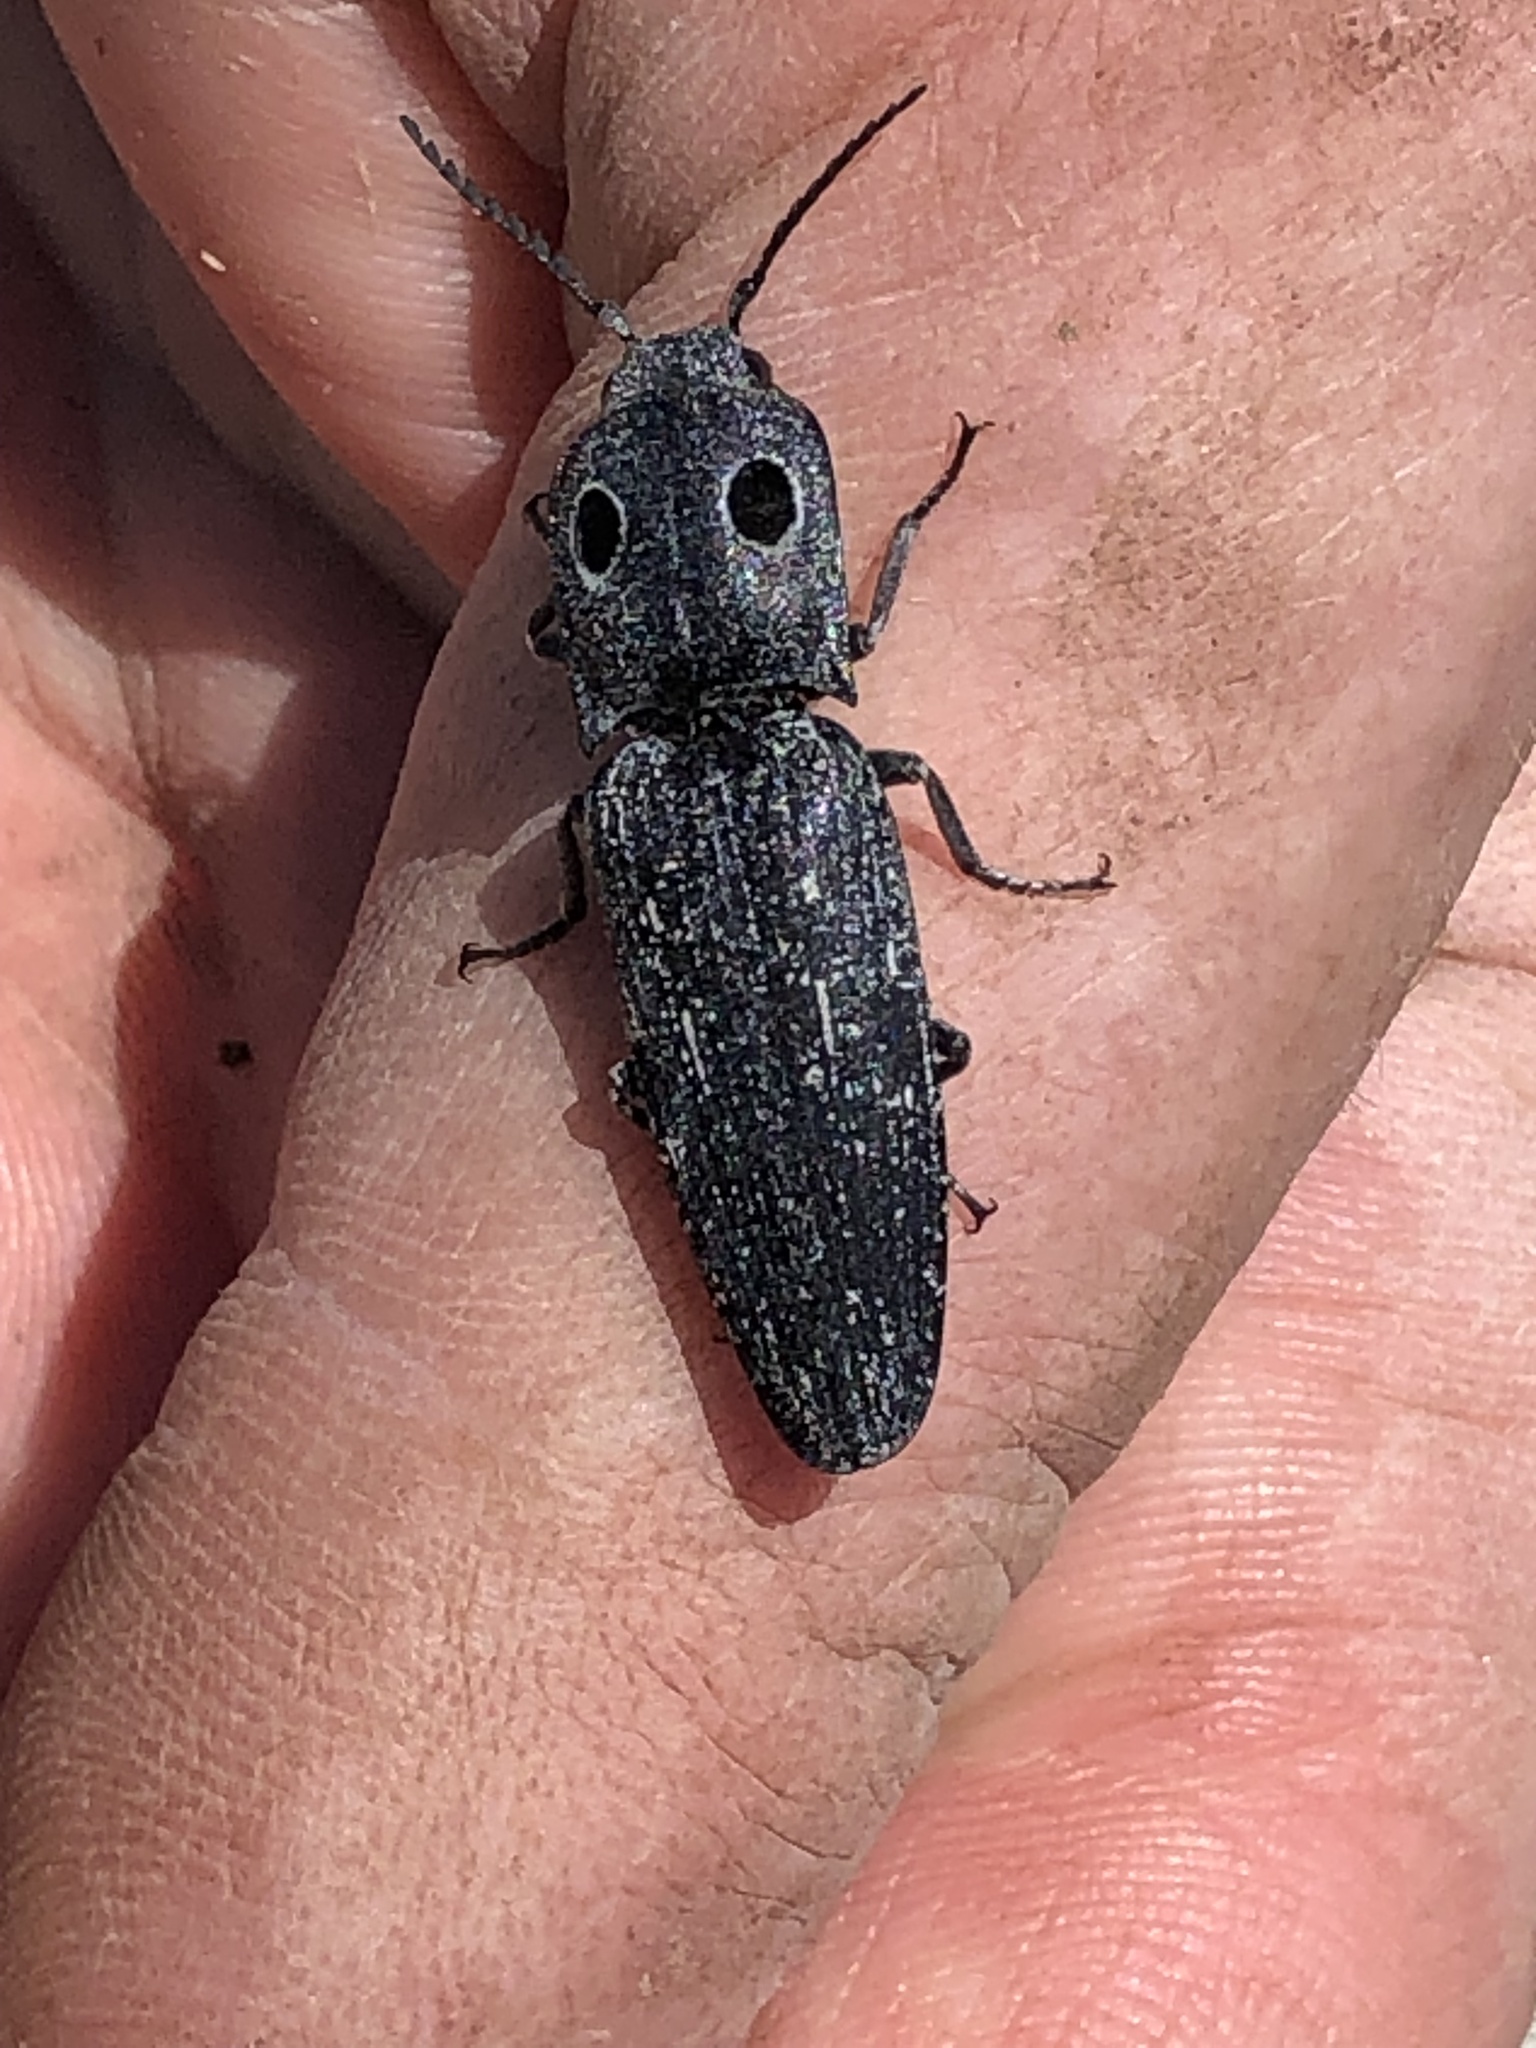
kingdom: Animalia
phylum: Arthropoda
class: Insecta
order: Coleoptera
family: Elateridae
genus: Alaus
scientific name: Alaus melanops
